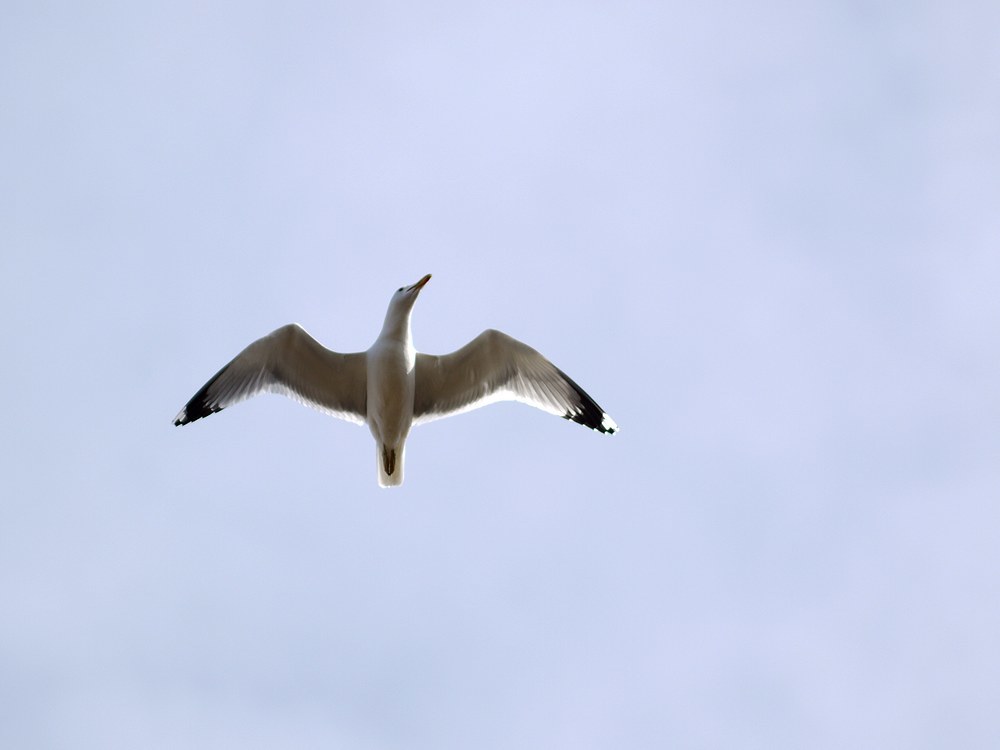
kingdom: Animalia
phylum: Chordata
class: Aves
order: Charadriiformes
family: Laridae
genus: Larus
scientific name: Larus cachinnans
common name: Caspian gull
